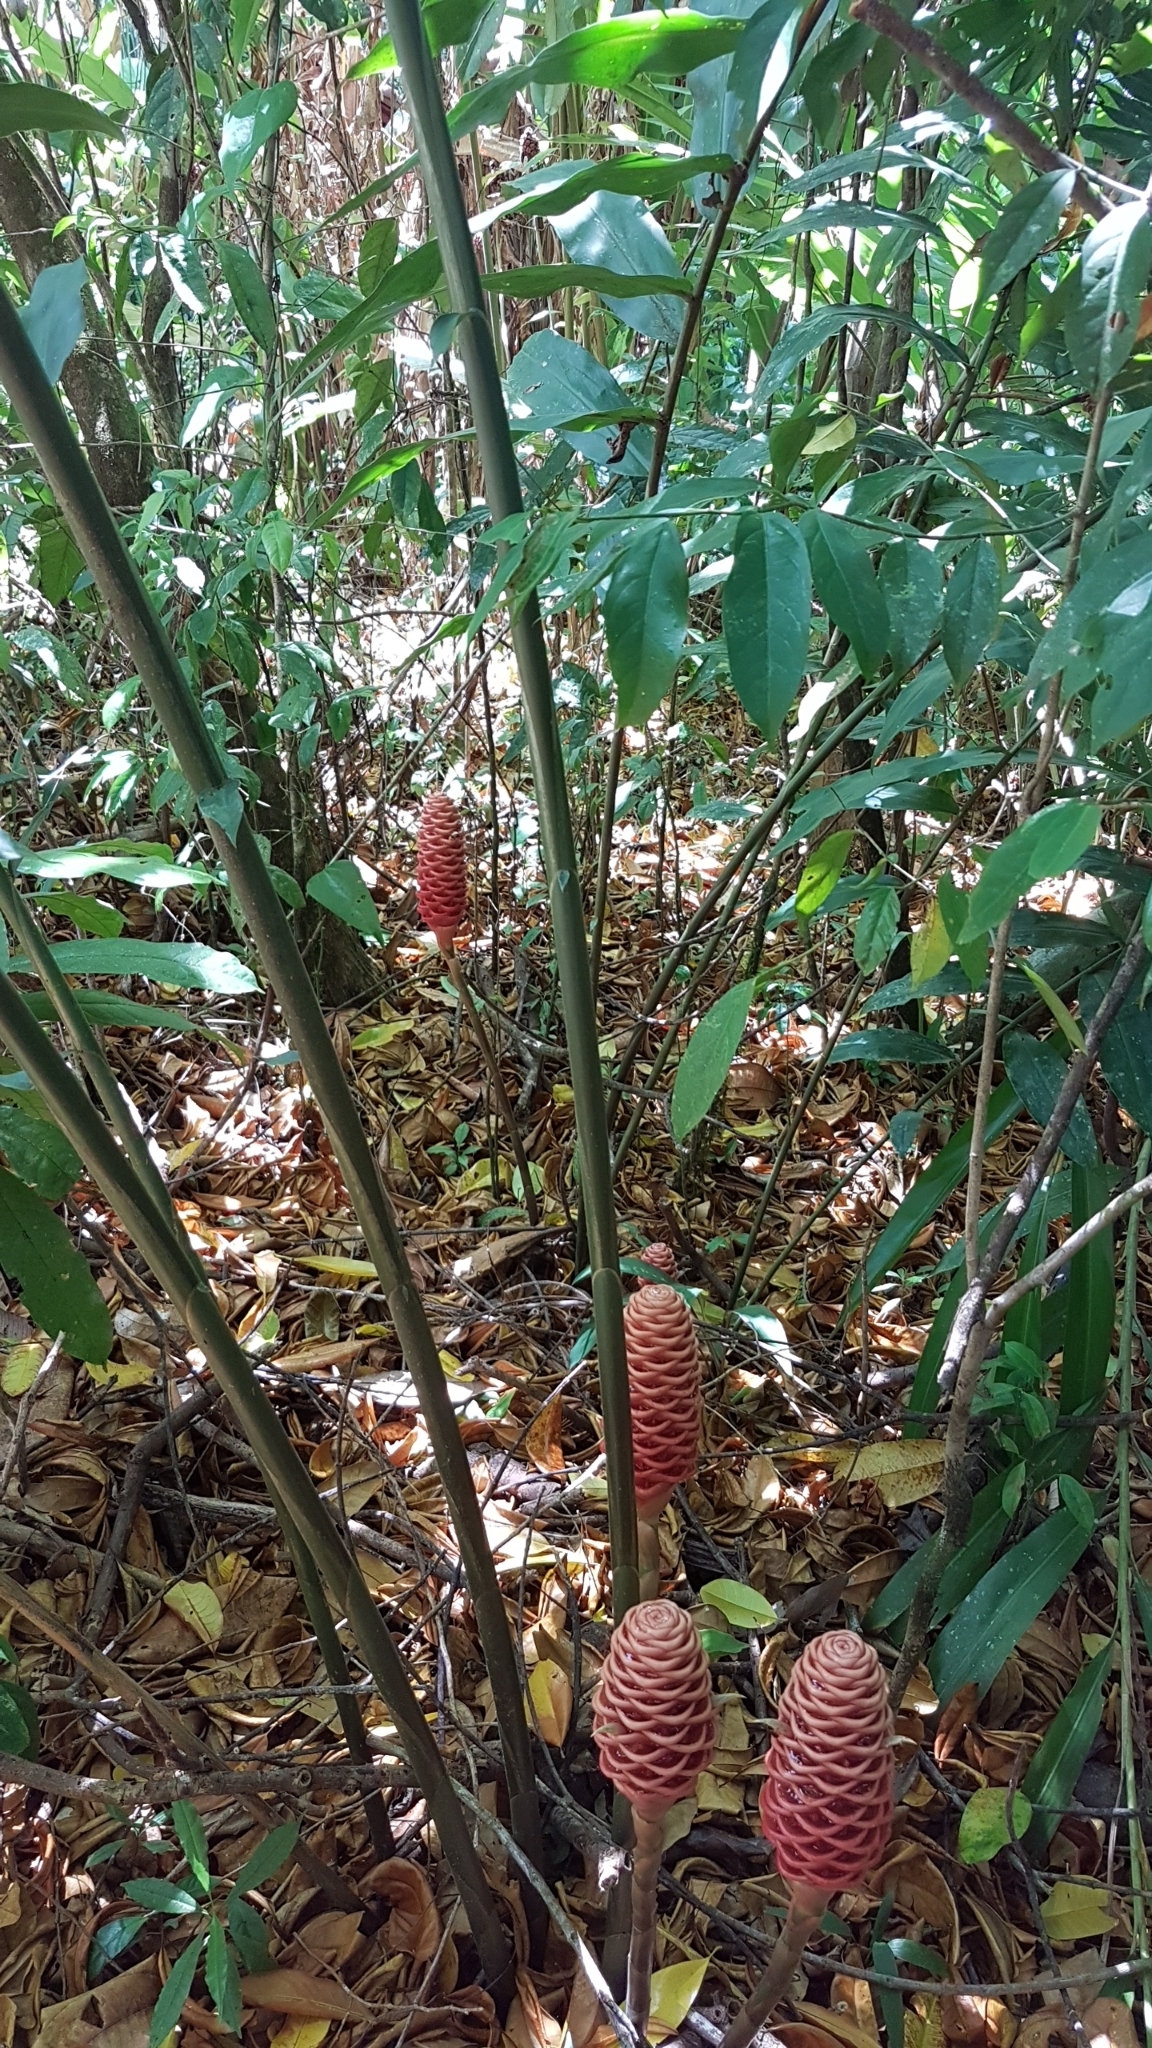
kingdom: Plantae
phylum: Tracheophyta
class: Liliopsida
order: Zingiberales
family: Zingiberaceae
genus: Zingiber
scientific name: Zingiber spectabile
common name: Beehive ginger
